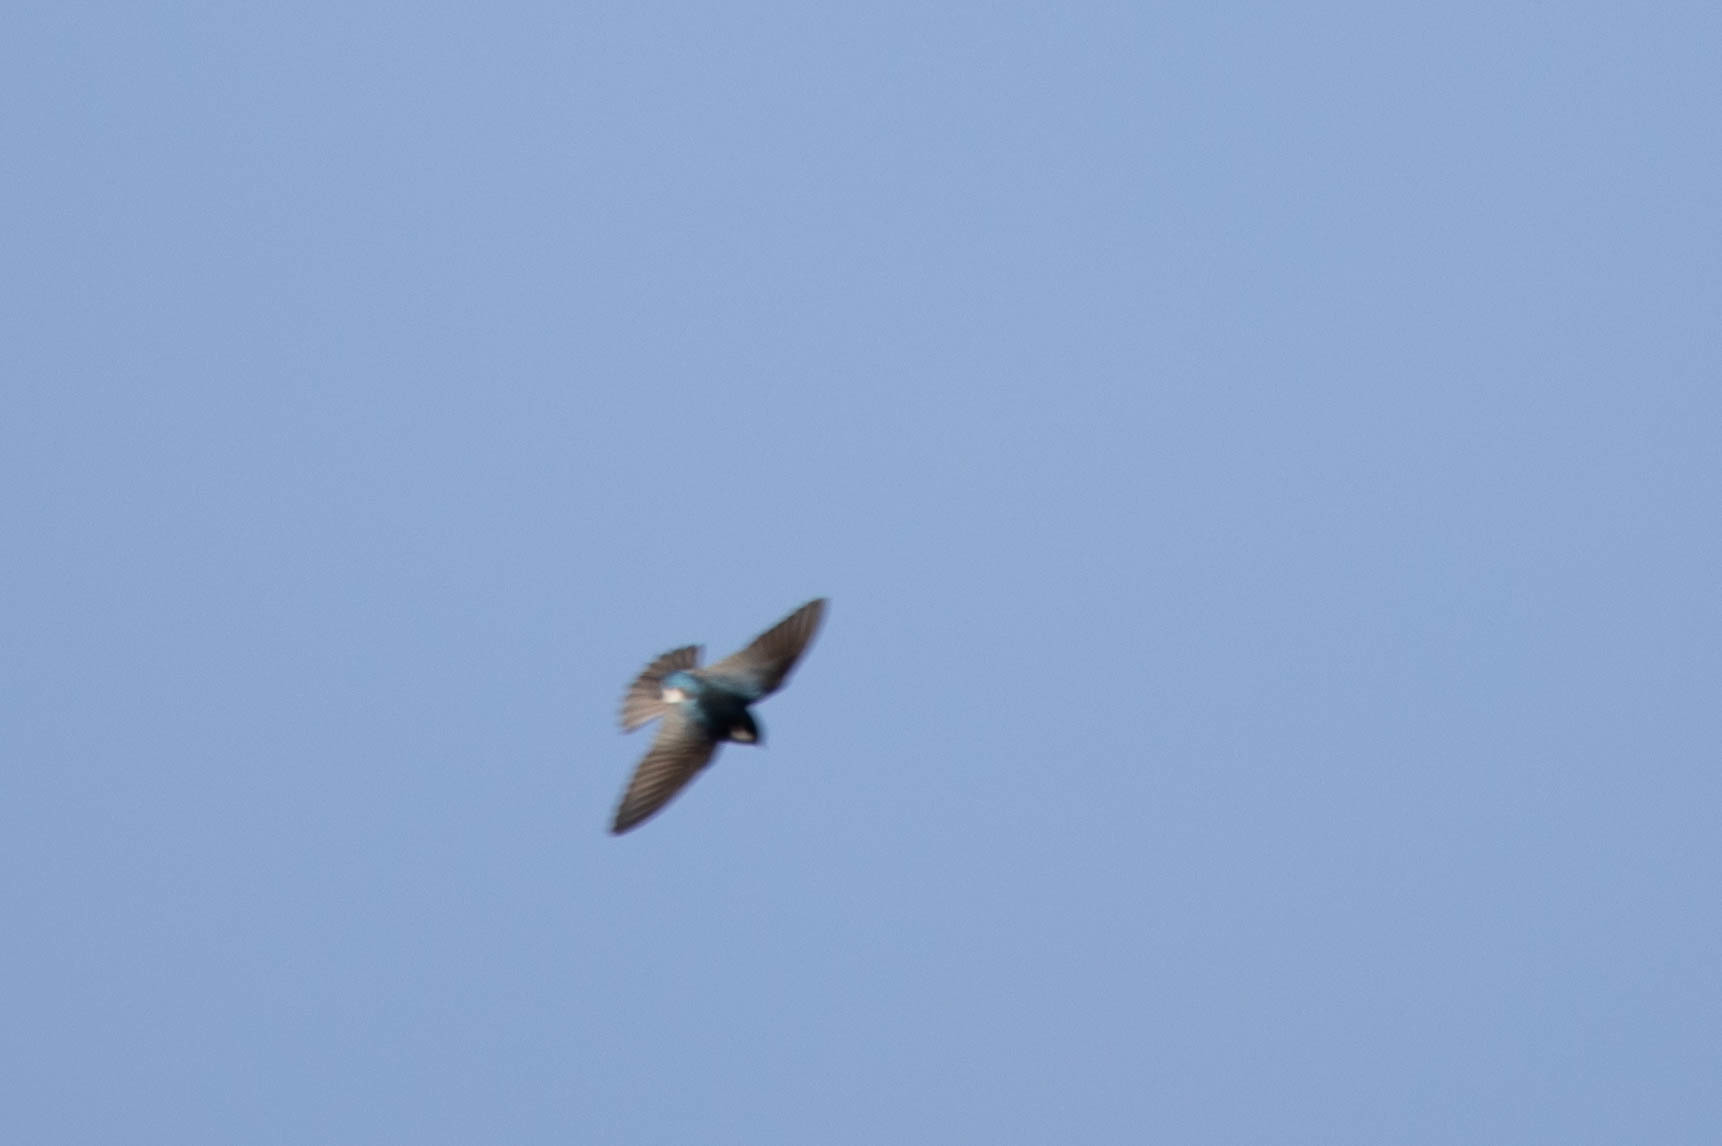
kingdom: Animalia
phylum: Chordata
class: Aves
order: Passeriformes
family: Hirundinidae
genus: Tachycineta
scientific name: Tachycineta bicolor
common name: Tree swallow
